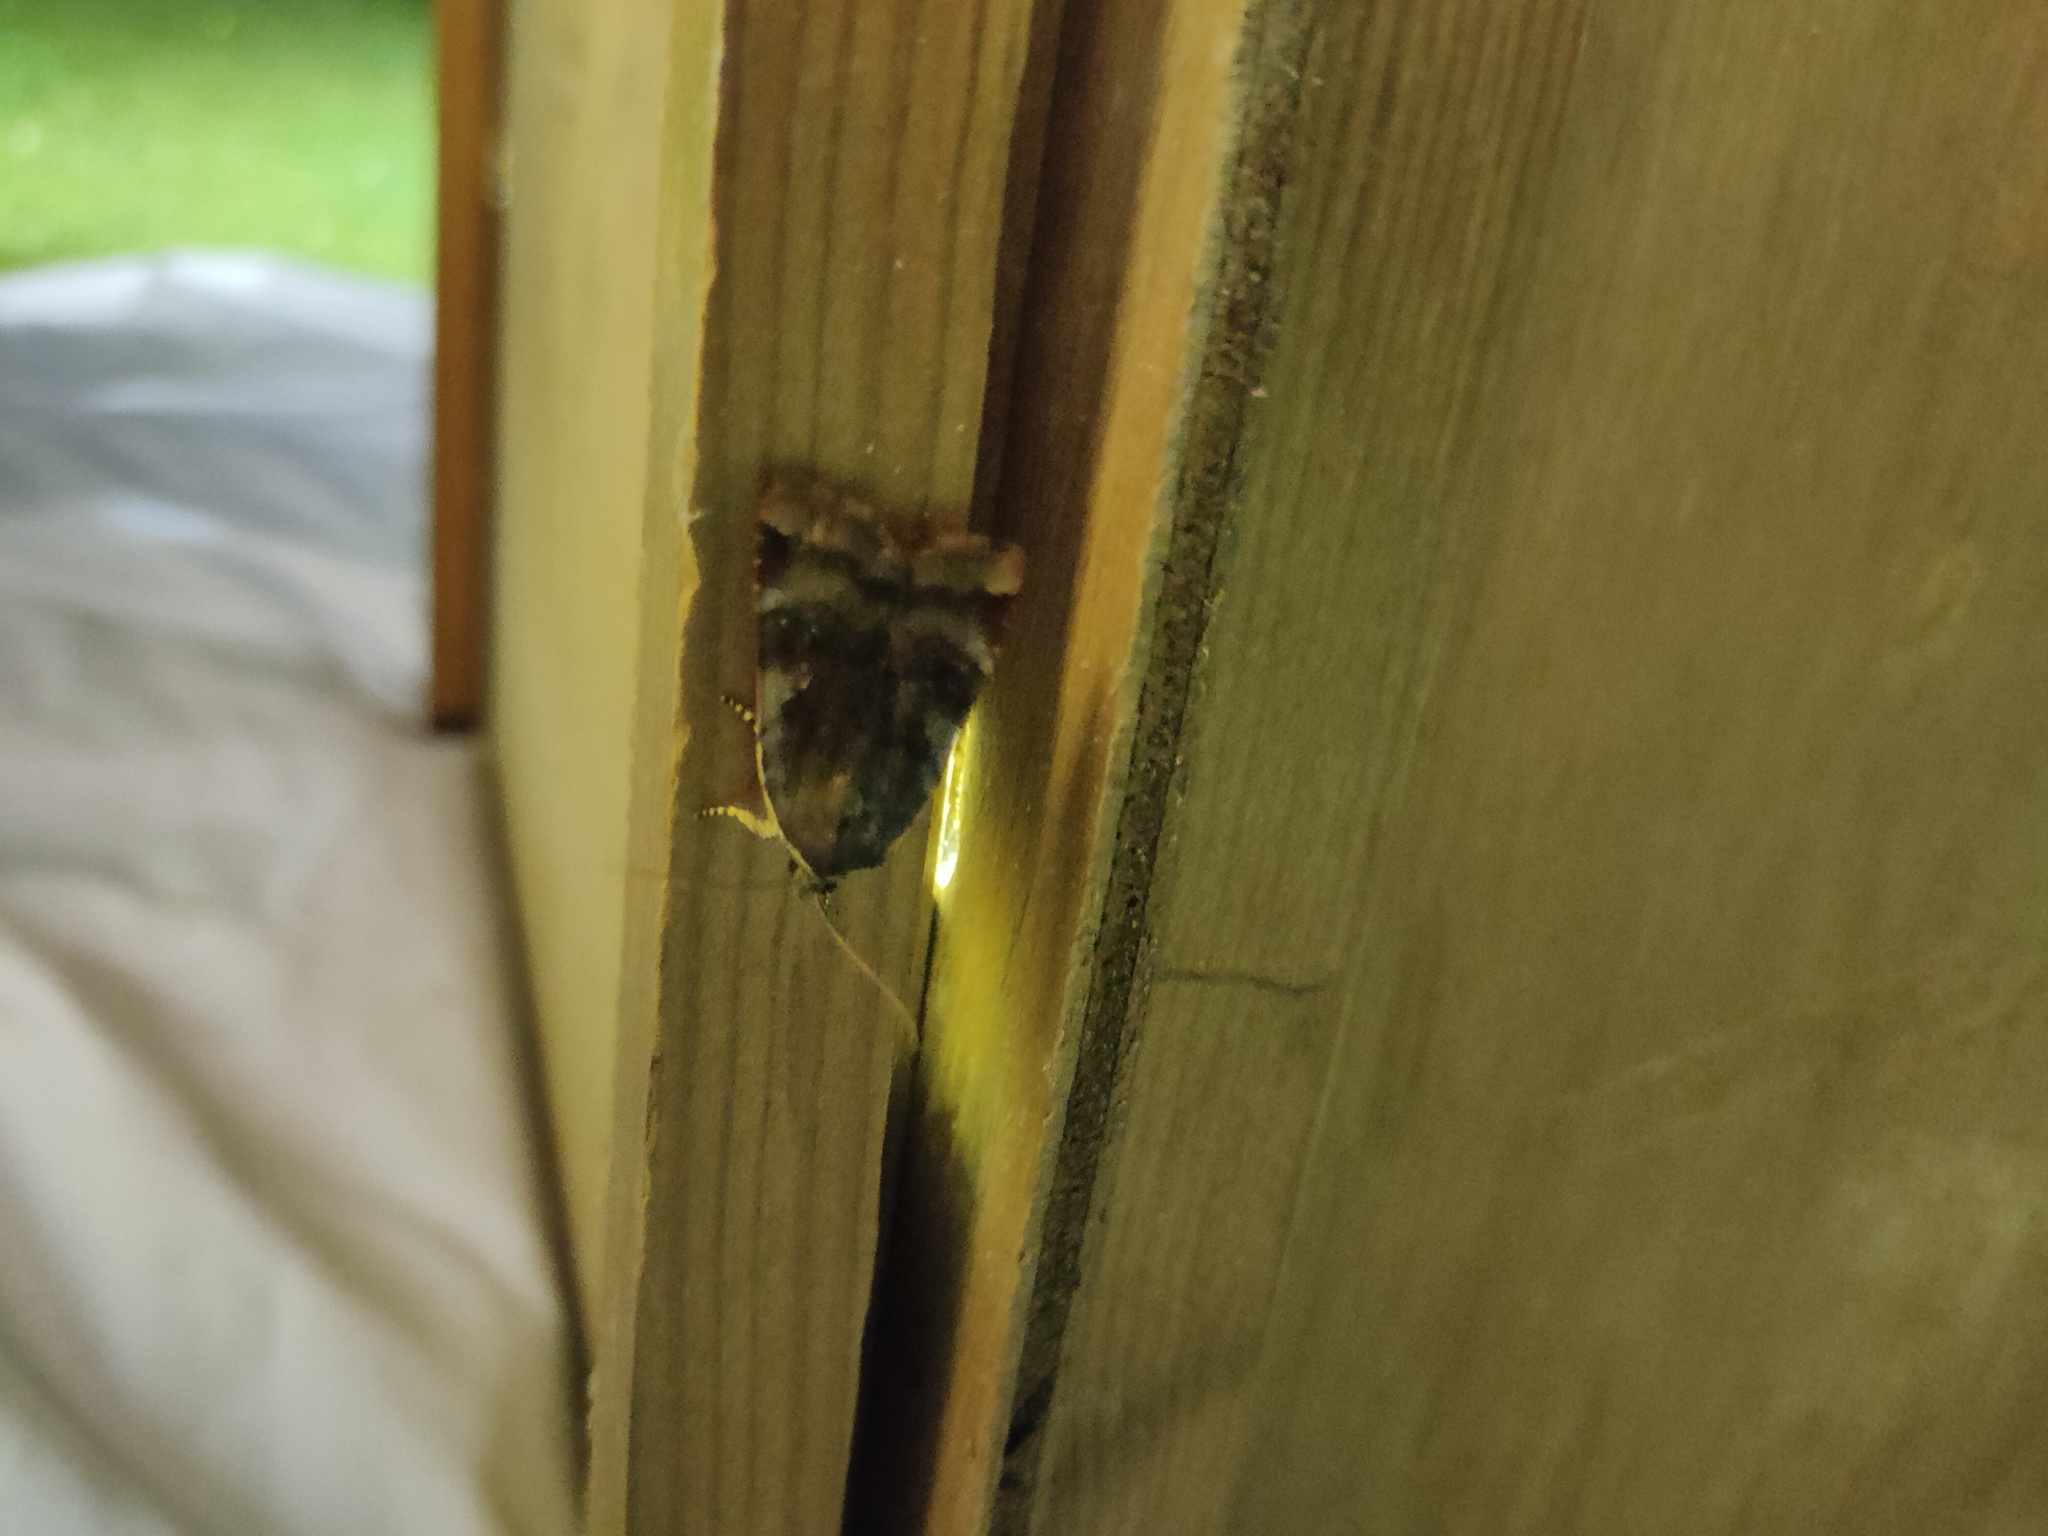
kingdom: Animalia
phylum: Arthropoda
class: Insecta
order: Lepidoptera
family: Noctuidae
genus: Noctua
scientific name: Noctua janthe
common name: Lesser broad-bordered yellow underwing
